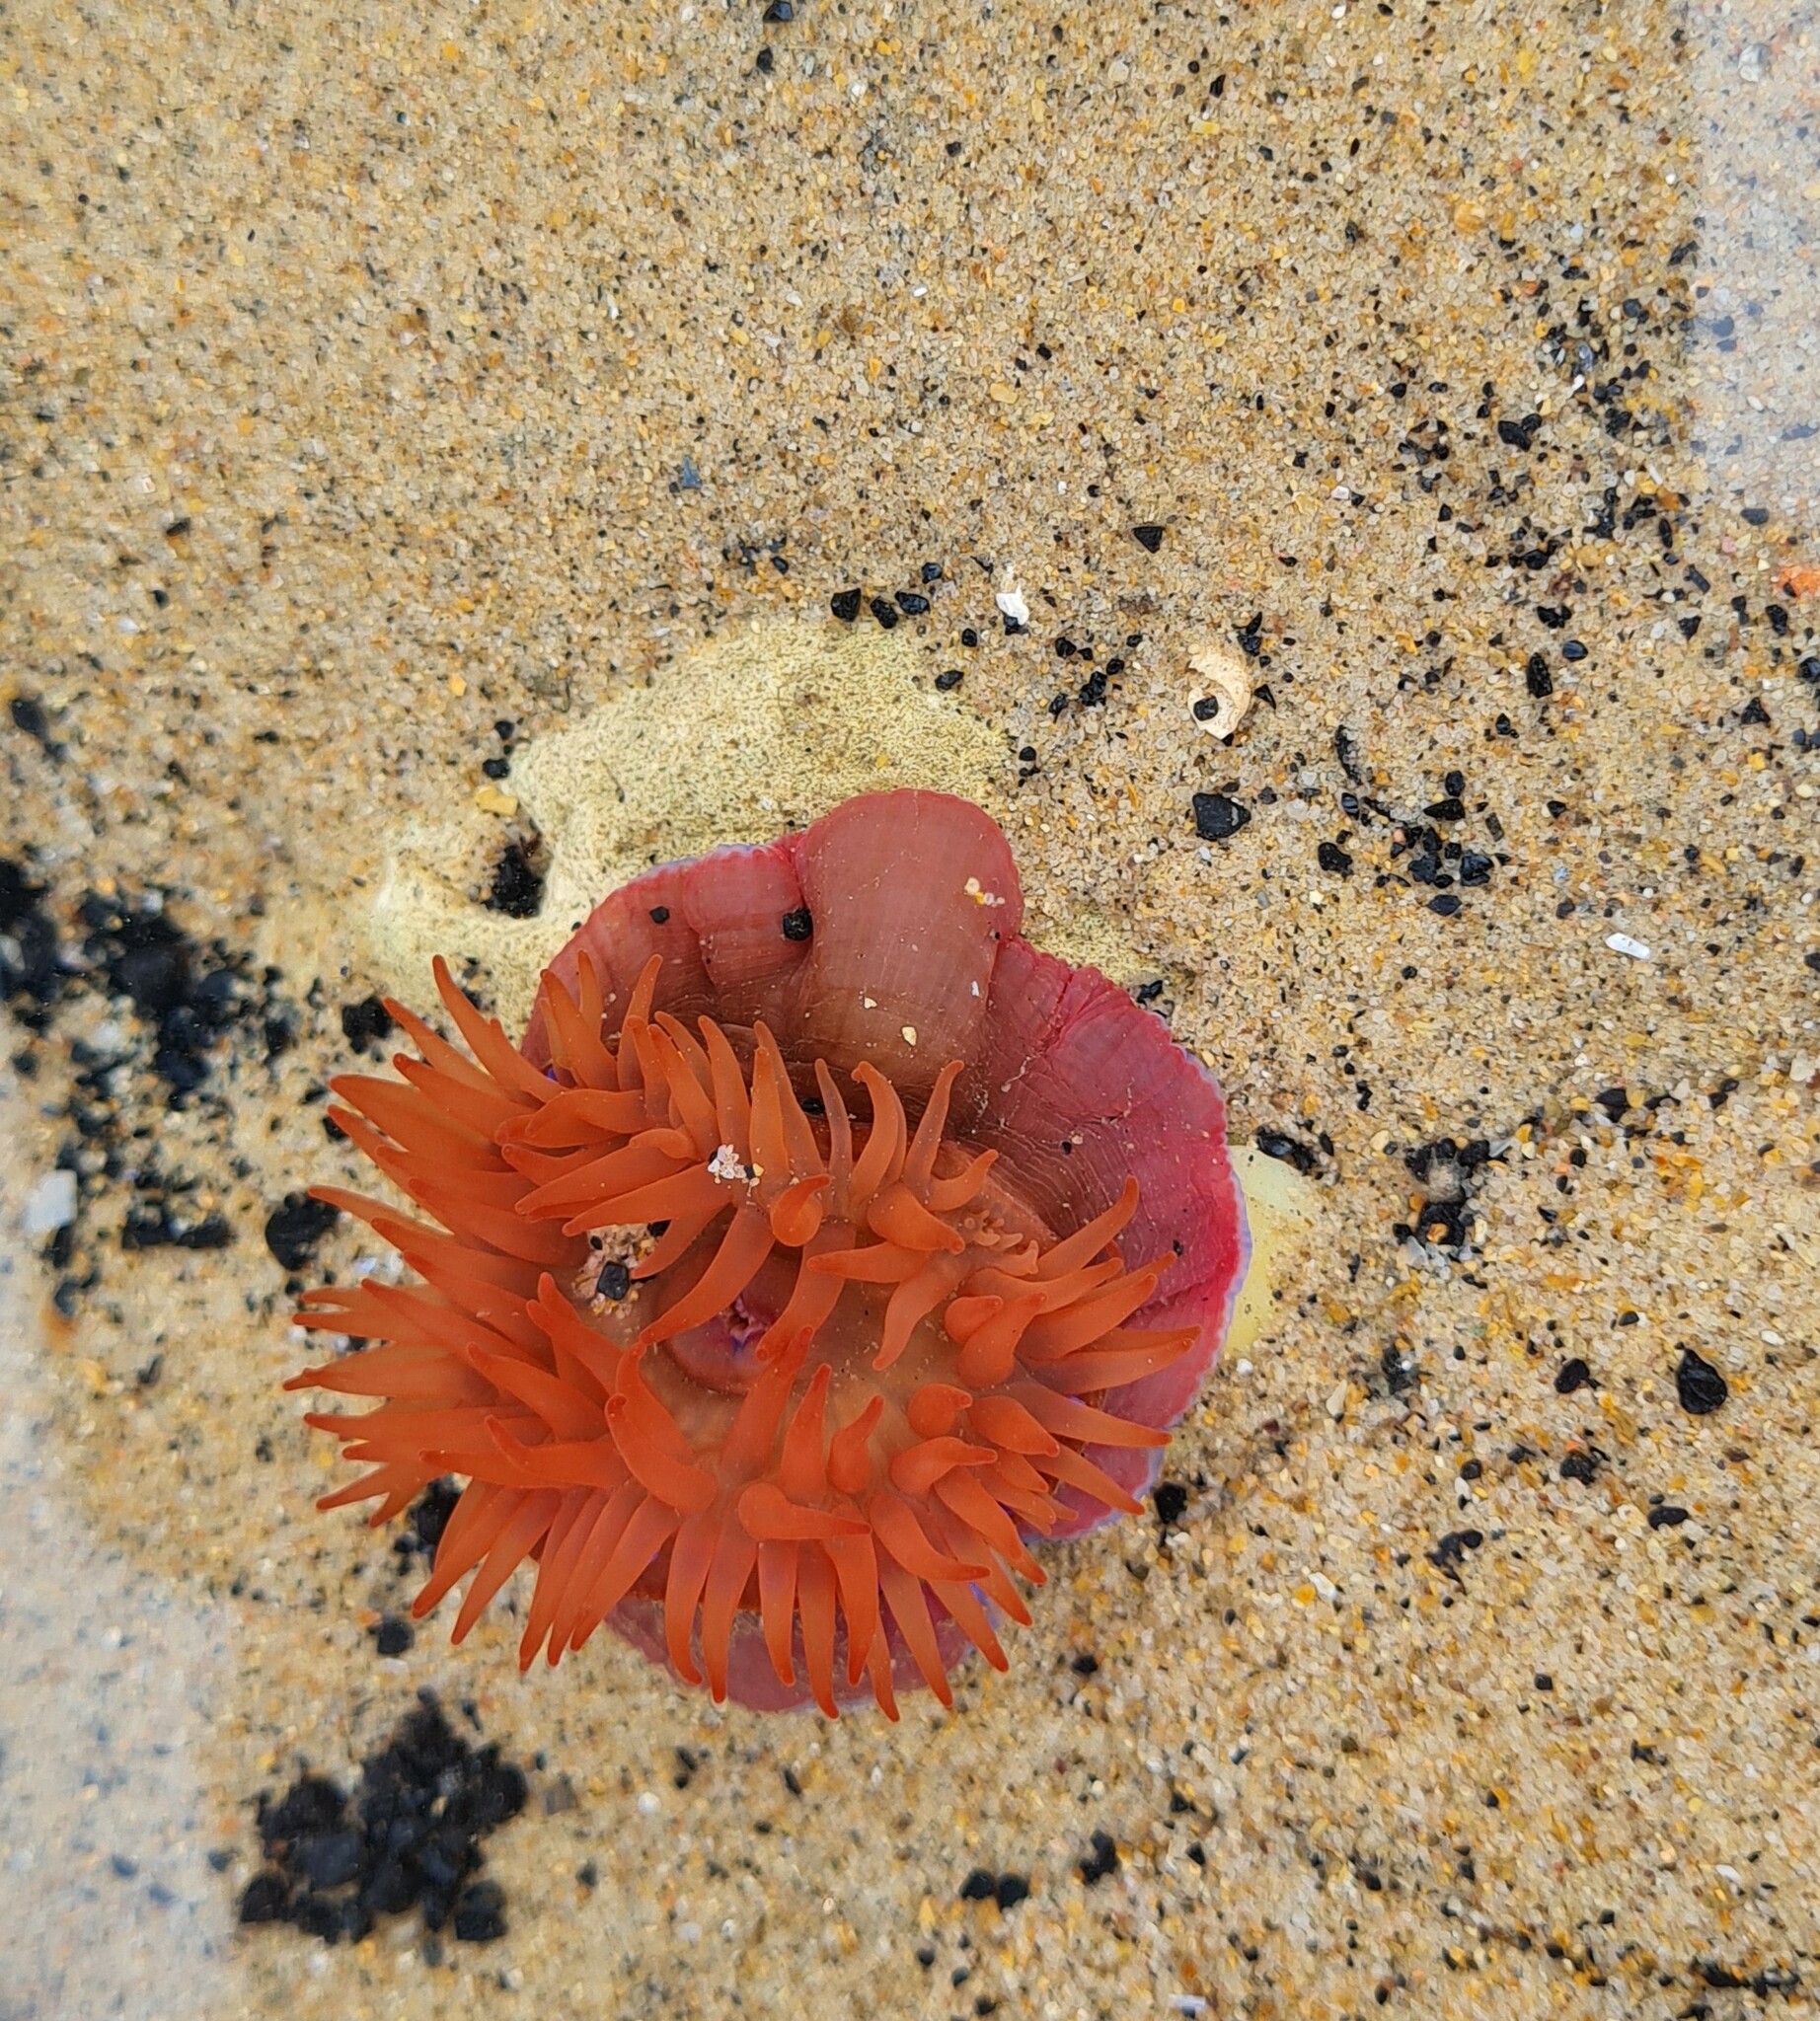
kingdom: Animalia
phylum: Cnidaria
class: Anthozoa
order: Actiniaria
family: Actiniidae
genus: Actinia
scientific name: Actinia equina
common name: Beadlet anemone
